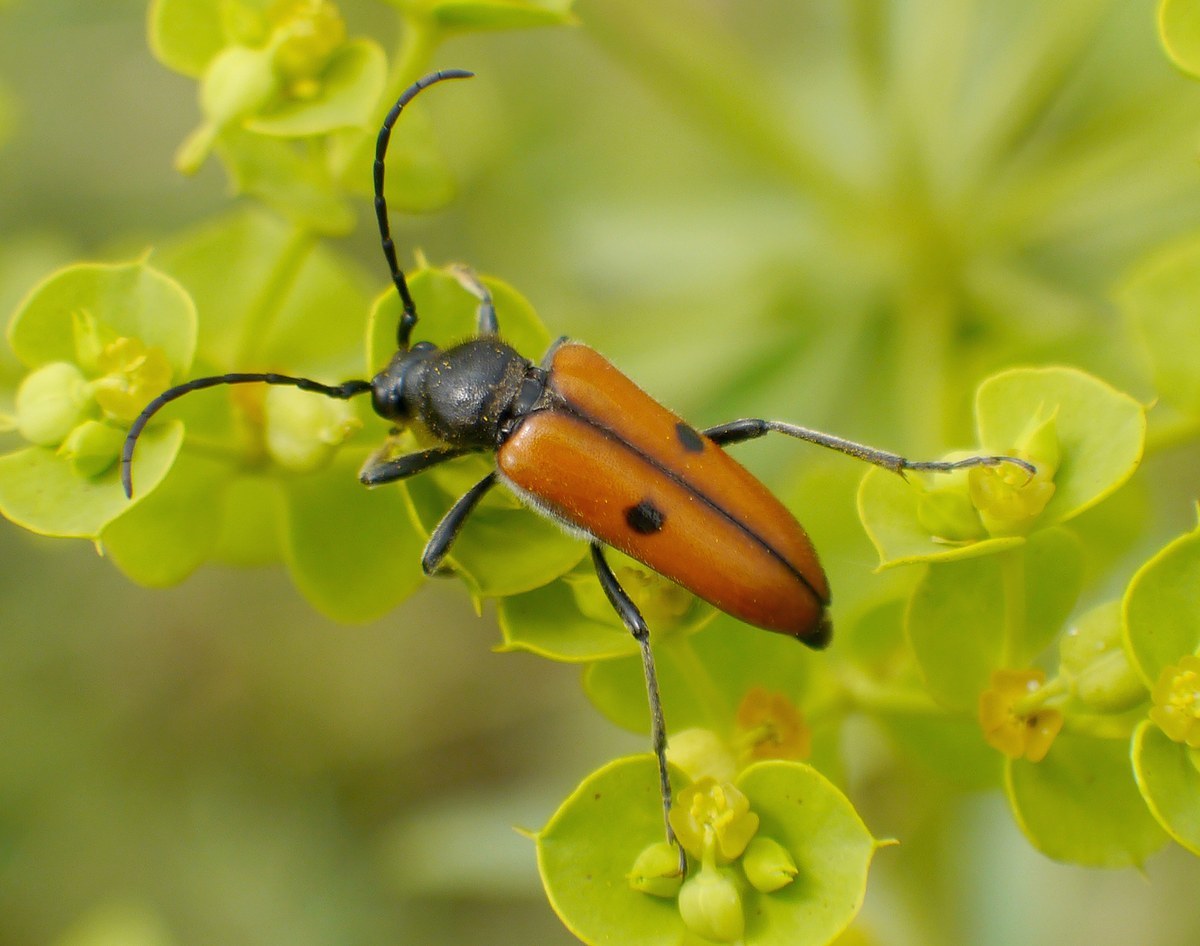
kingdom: Animalia
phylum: Arthropoda
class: Insecta
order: Coleoptera
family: Cerambycidae
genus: Vadonia
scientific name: Vadonia unipunctata
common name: Long-horned beetle
